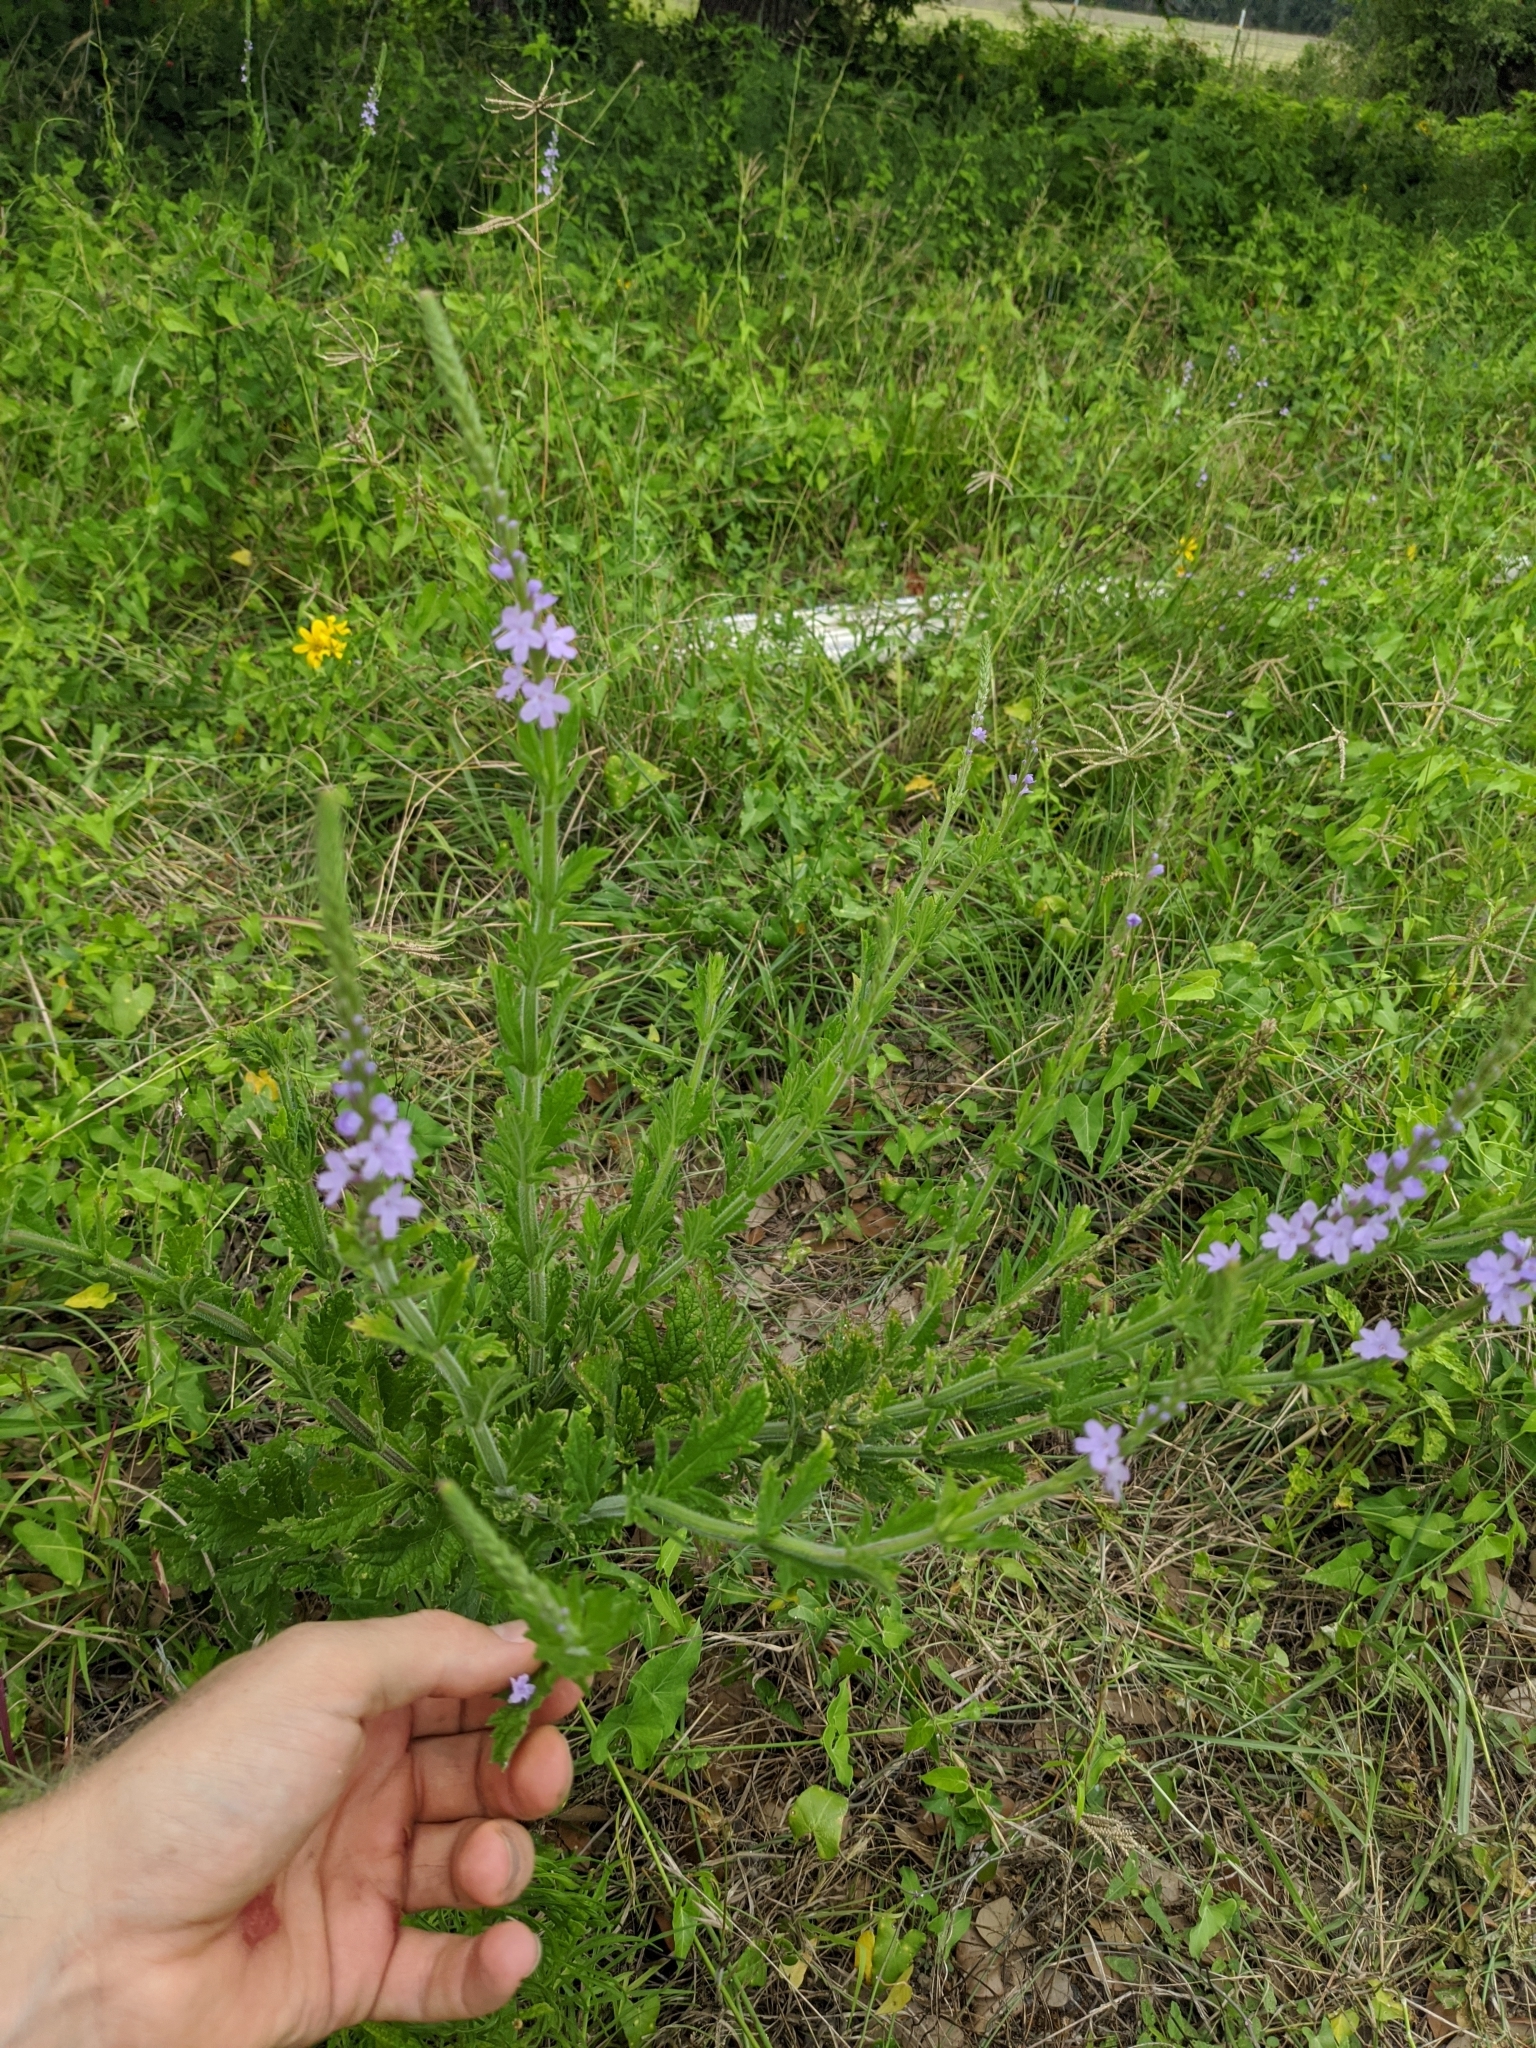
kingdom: Plantae
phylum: Tracheophyta
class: Magnoliopsida
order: Lamiales
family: Verbenaceae
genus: Verbena
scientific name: Verbena xutha
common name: Gulf vervain
